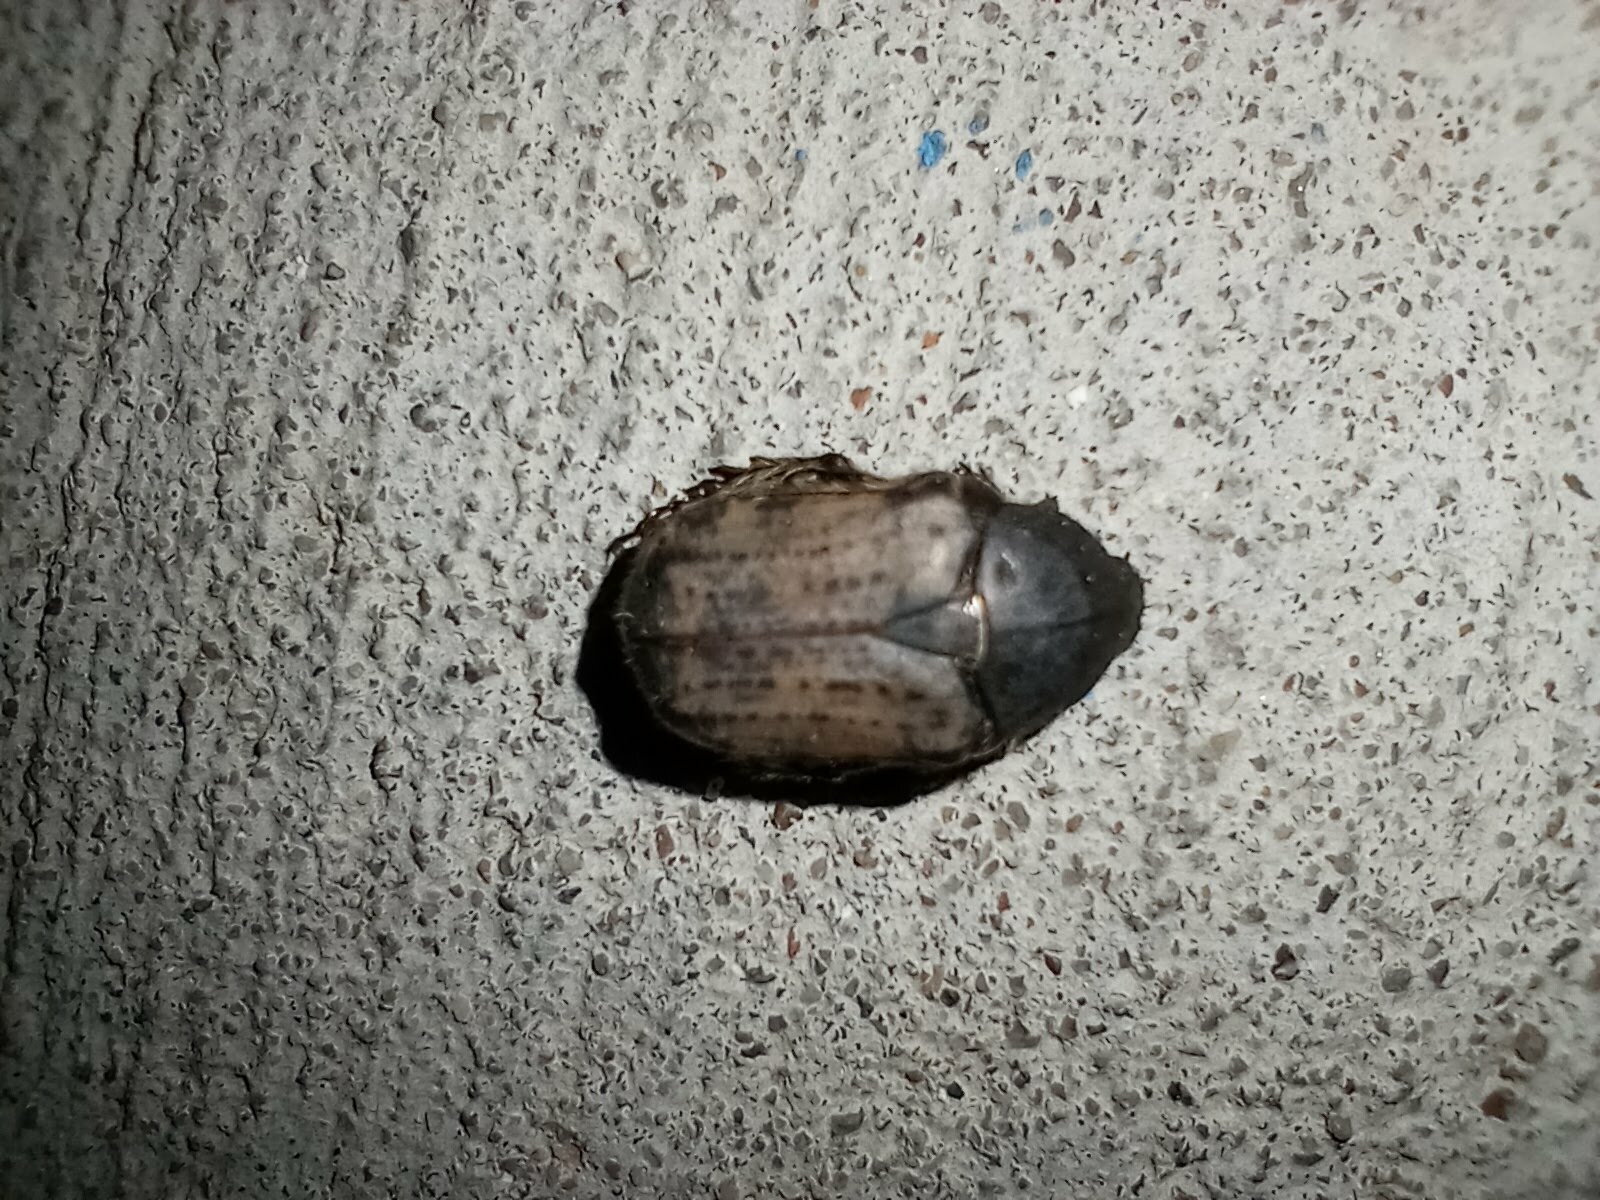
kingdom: Animalia
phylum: Arthropoda
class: Insecta
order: Coleoptera
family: Scarabaeidae
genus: Euphoria
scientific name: Euphoria inda
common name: Bumble flower beetle
